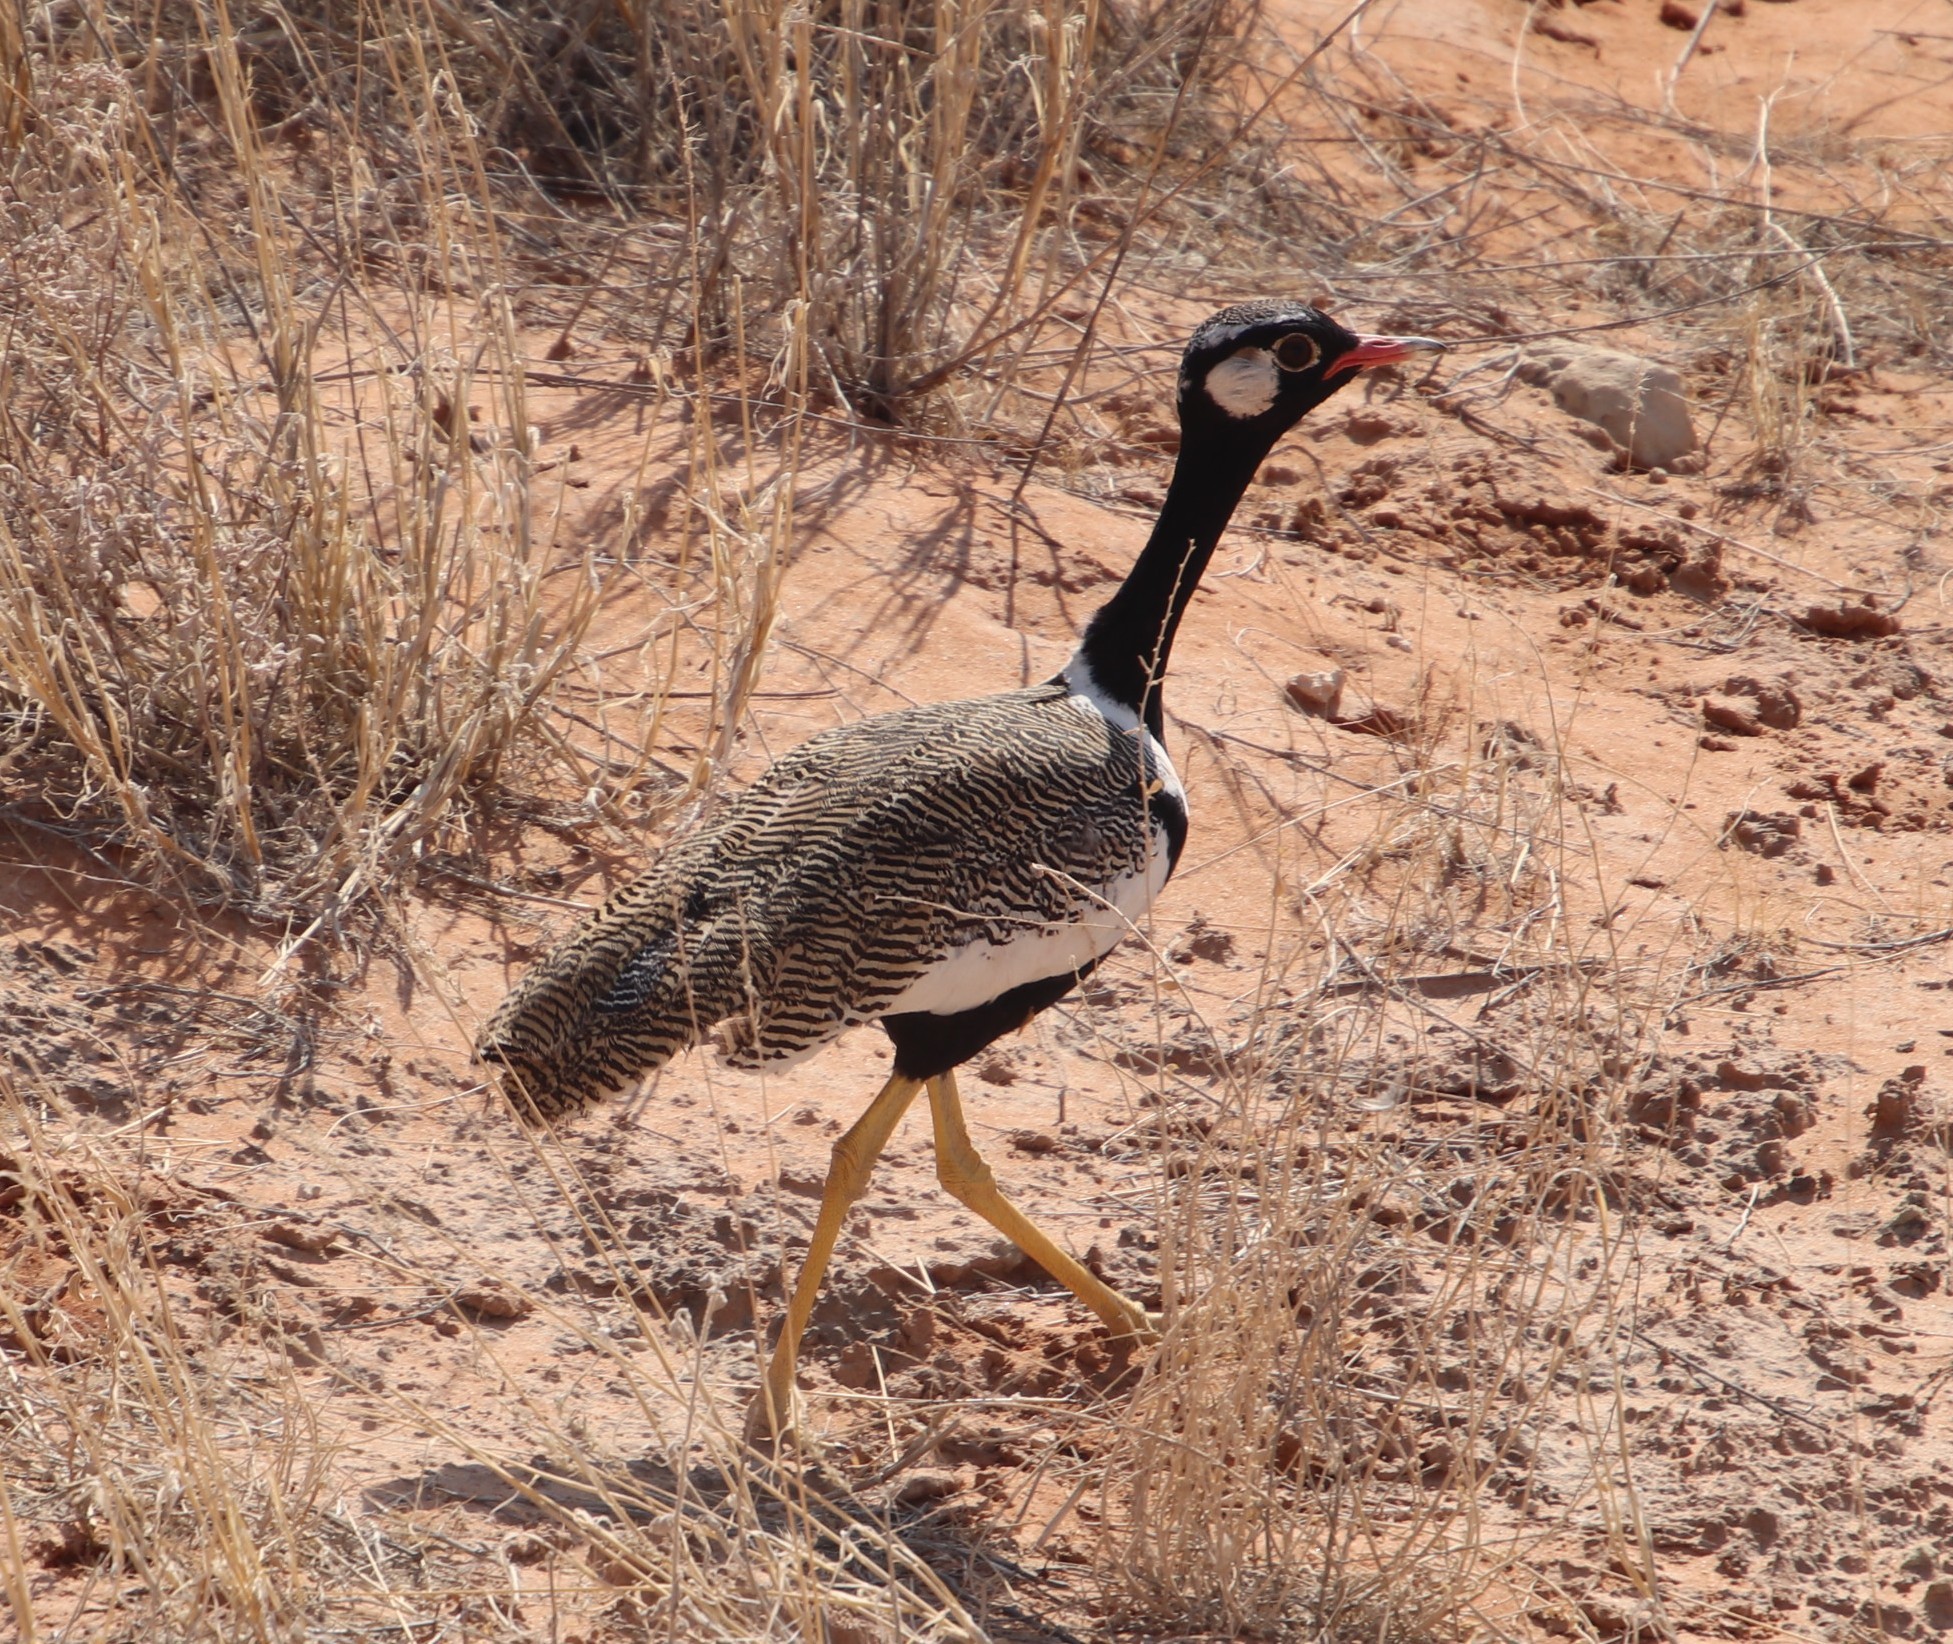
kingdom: Animalia
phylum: Chordata
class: Aves
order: Otidiformes
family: Otididae
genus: Afrotis
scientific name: Afrotis afraoides
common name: Northern black korhaan
